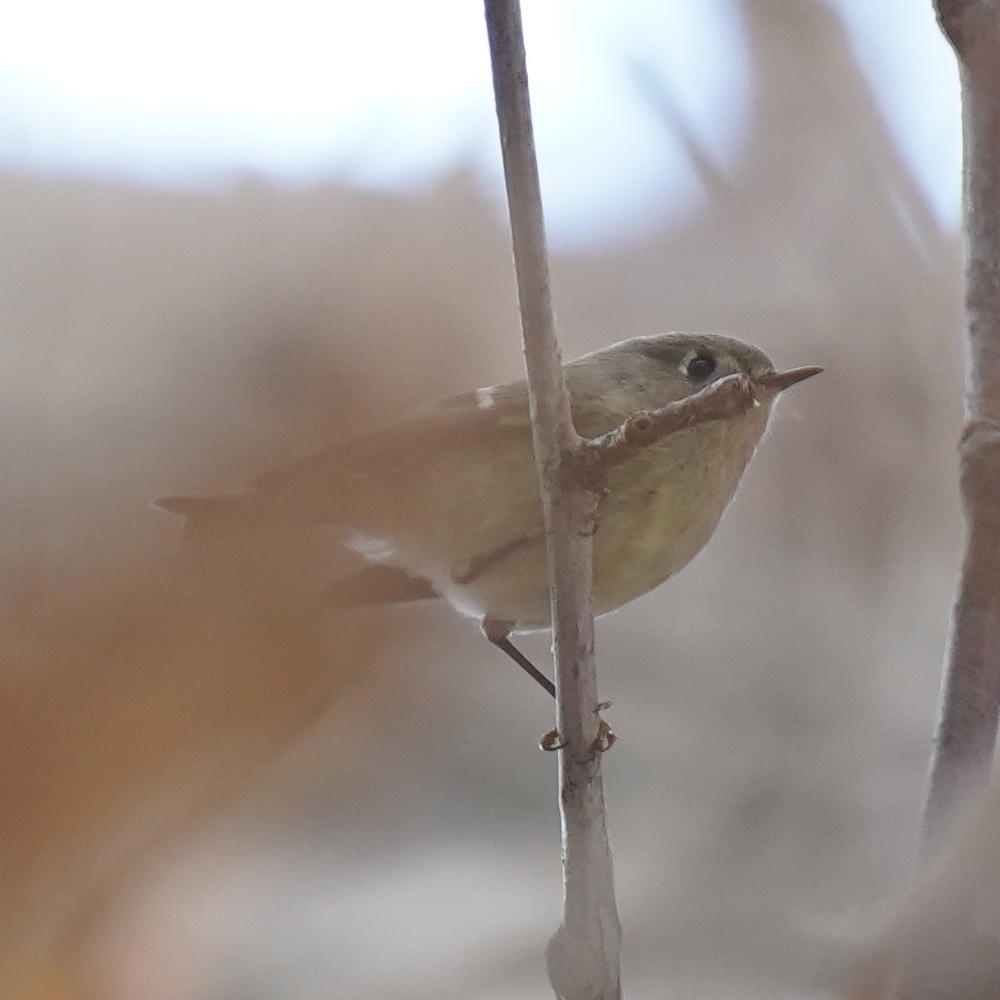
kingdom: Animalia
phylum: Chordata
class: Aves
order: Passeriformes
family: Regulidae
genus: Regulus
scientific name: Regulus calendula
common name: Ruby-crowned kinglet
